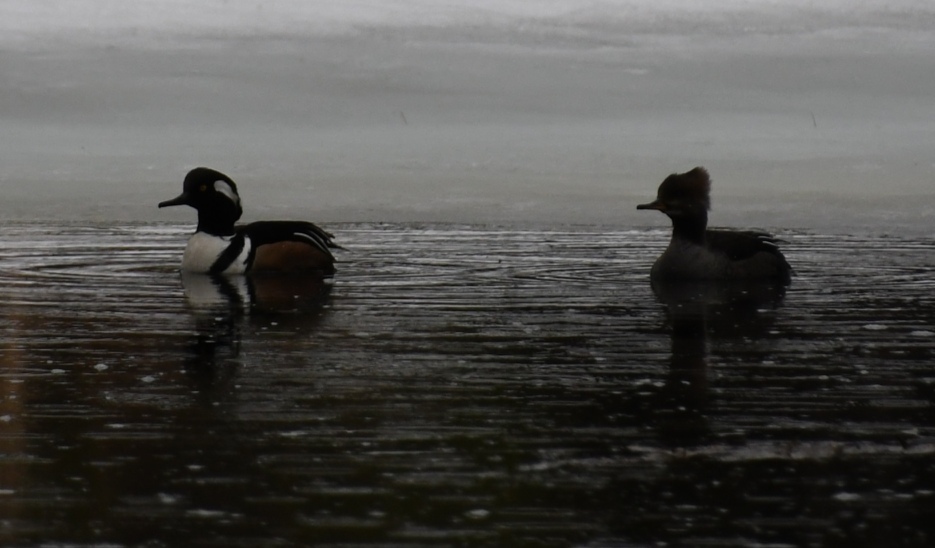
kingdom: Animalia
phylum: Chordata
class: Aves
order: Anseriformes
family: Anatidae
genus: Lophodytes
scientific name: Lophodytes cucullatus
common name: Hooded merganser
